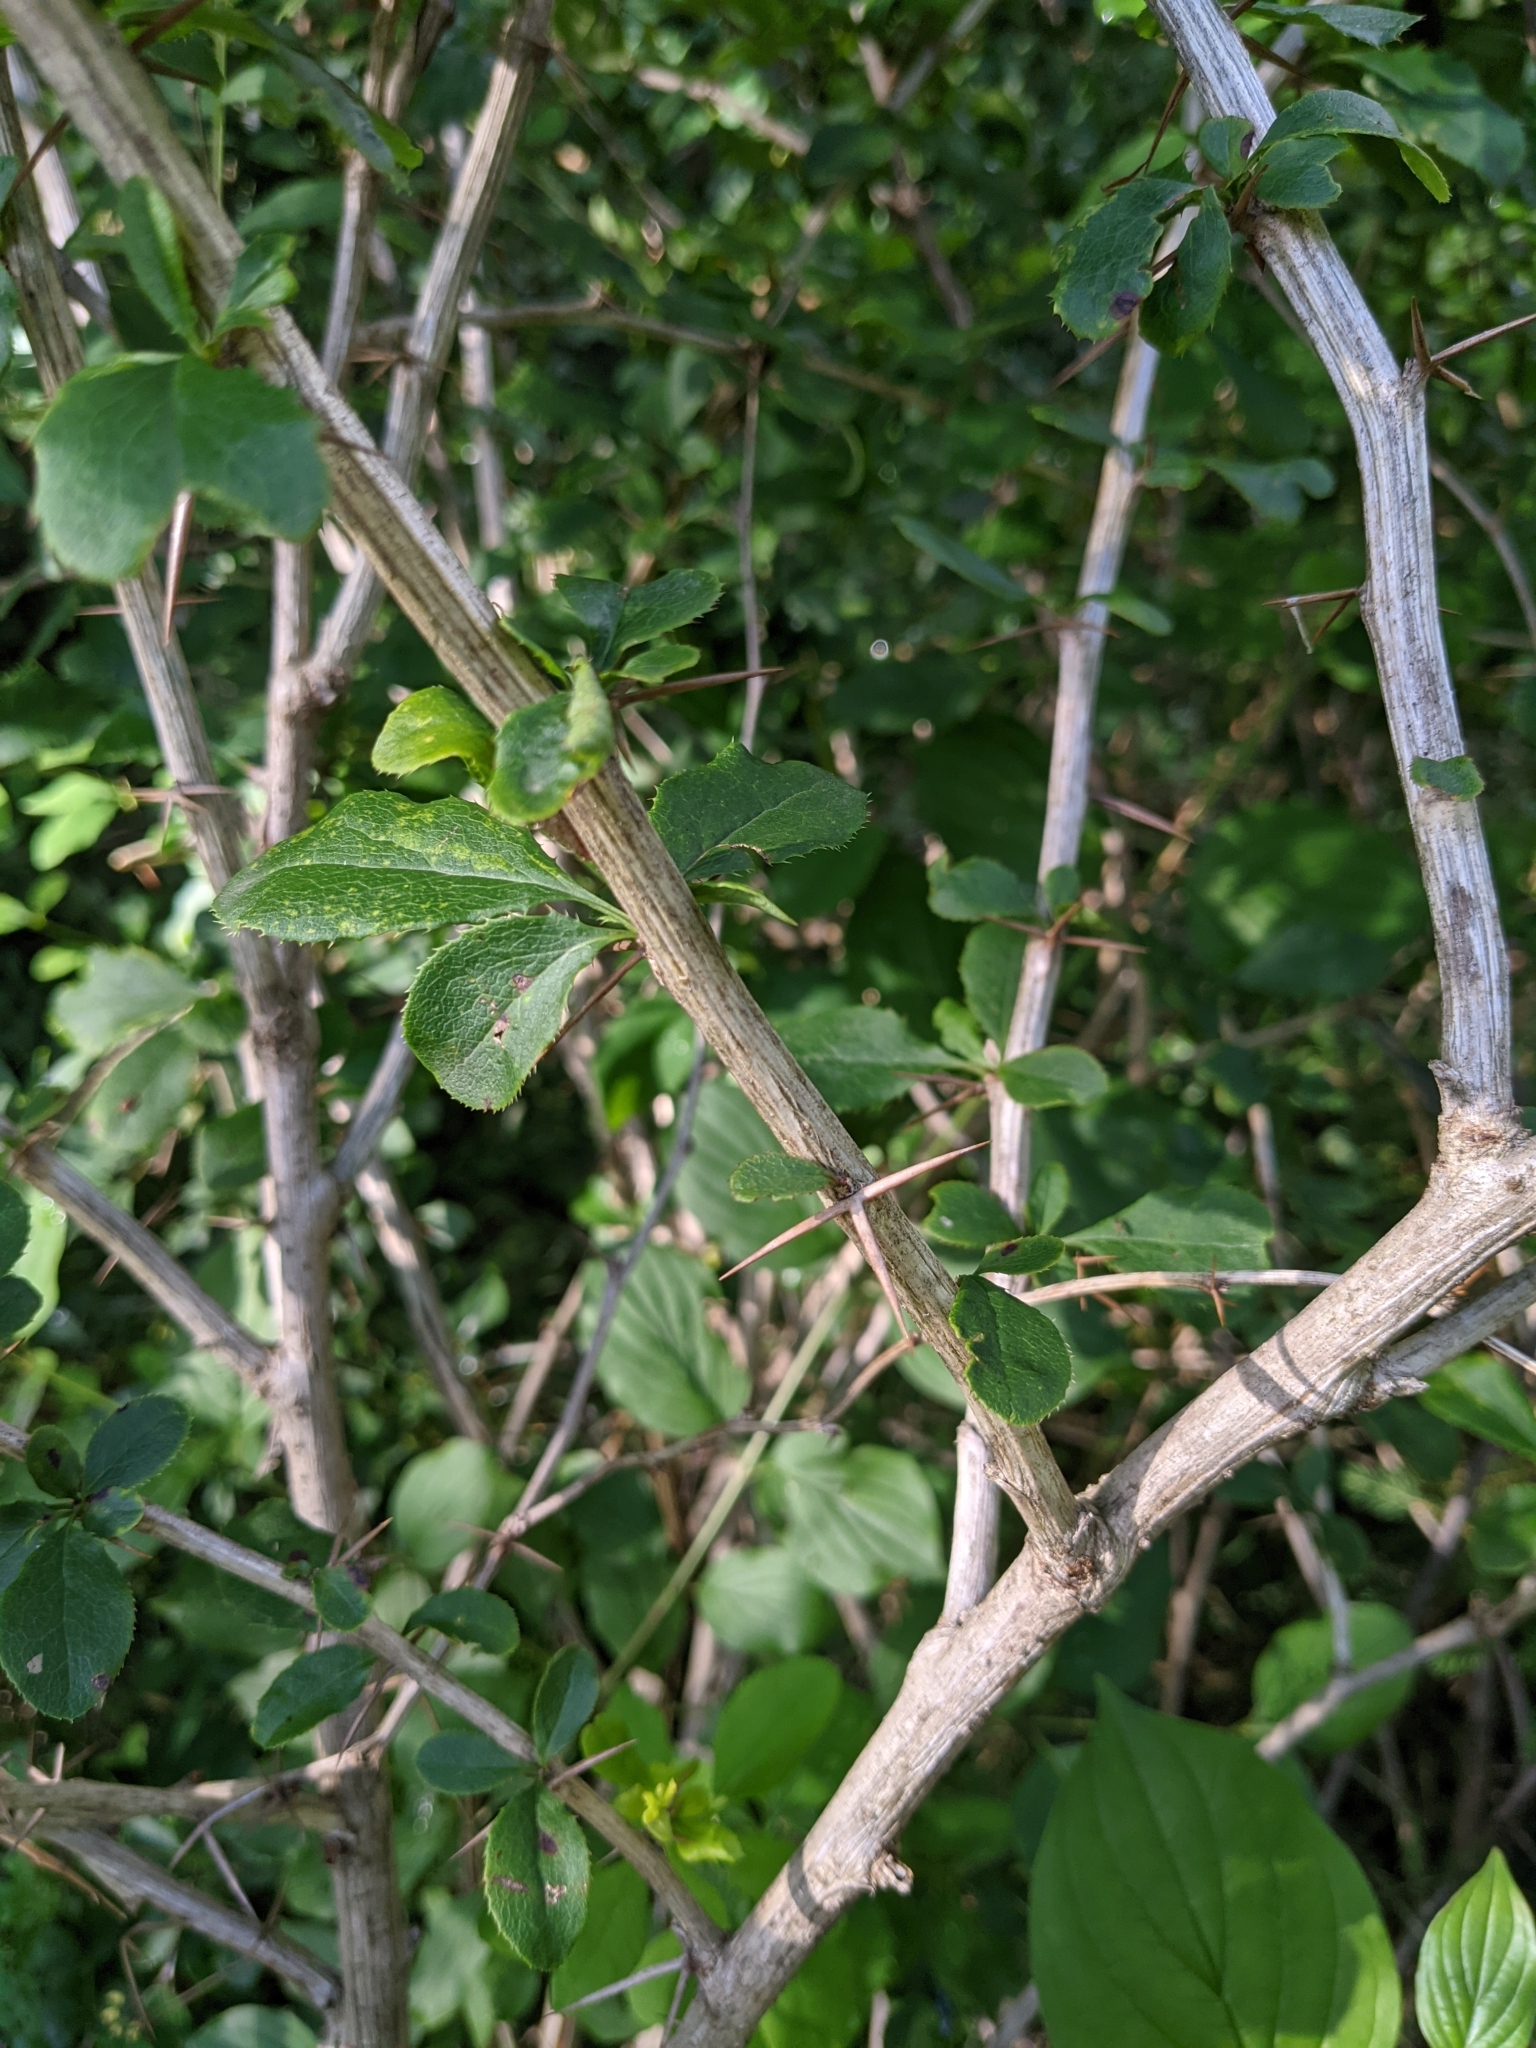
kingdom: Plantae
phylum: Tracheophyta
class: Magnoliopsida
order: Ranunculales
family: Berberidaceae
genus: Berberis
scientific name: Berberis vulgaris
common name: Barberry
